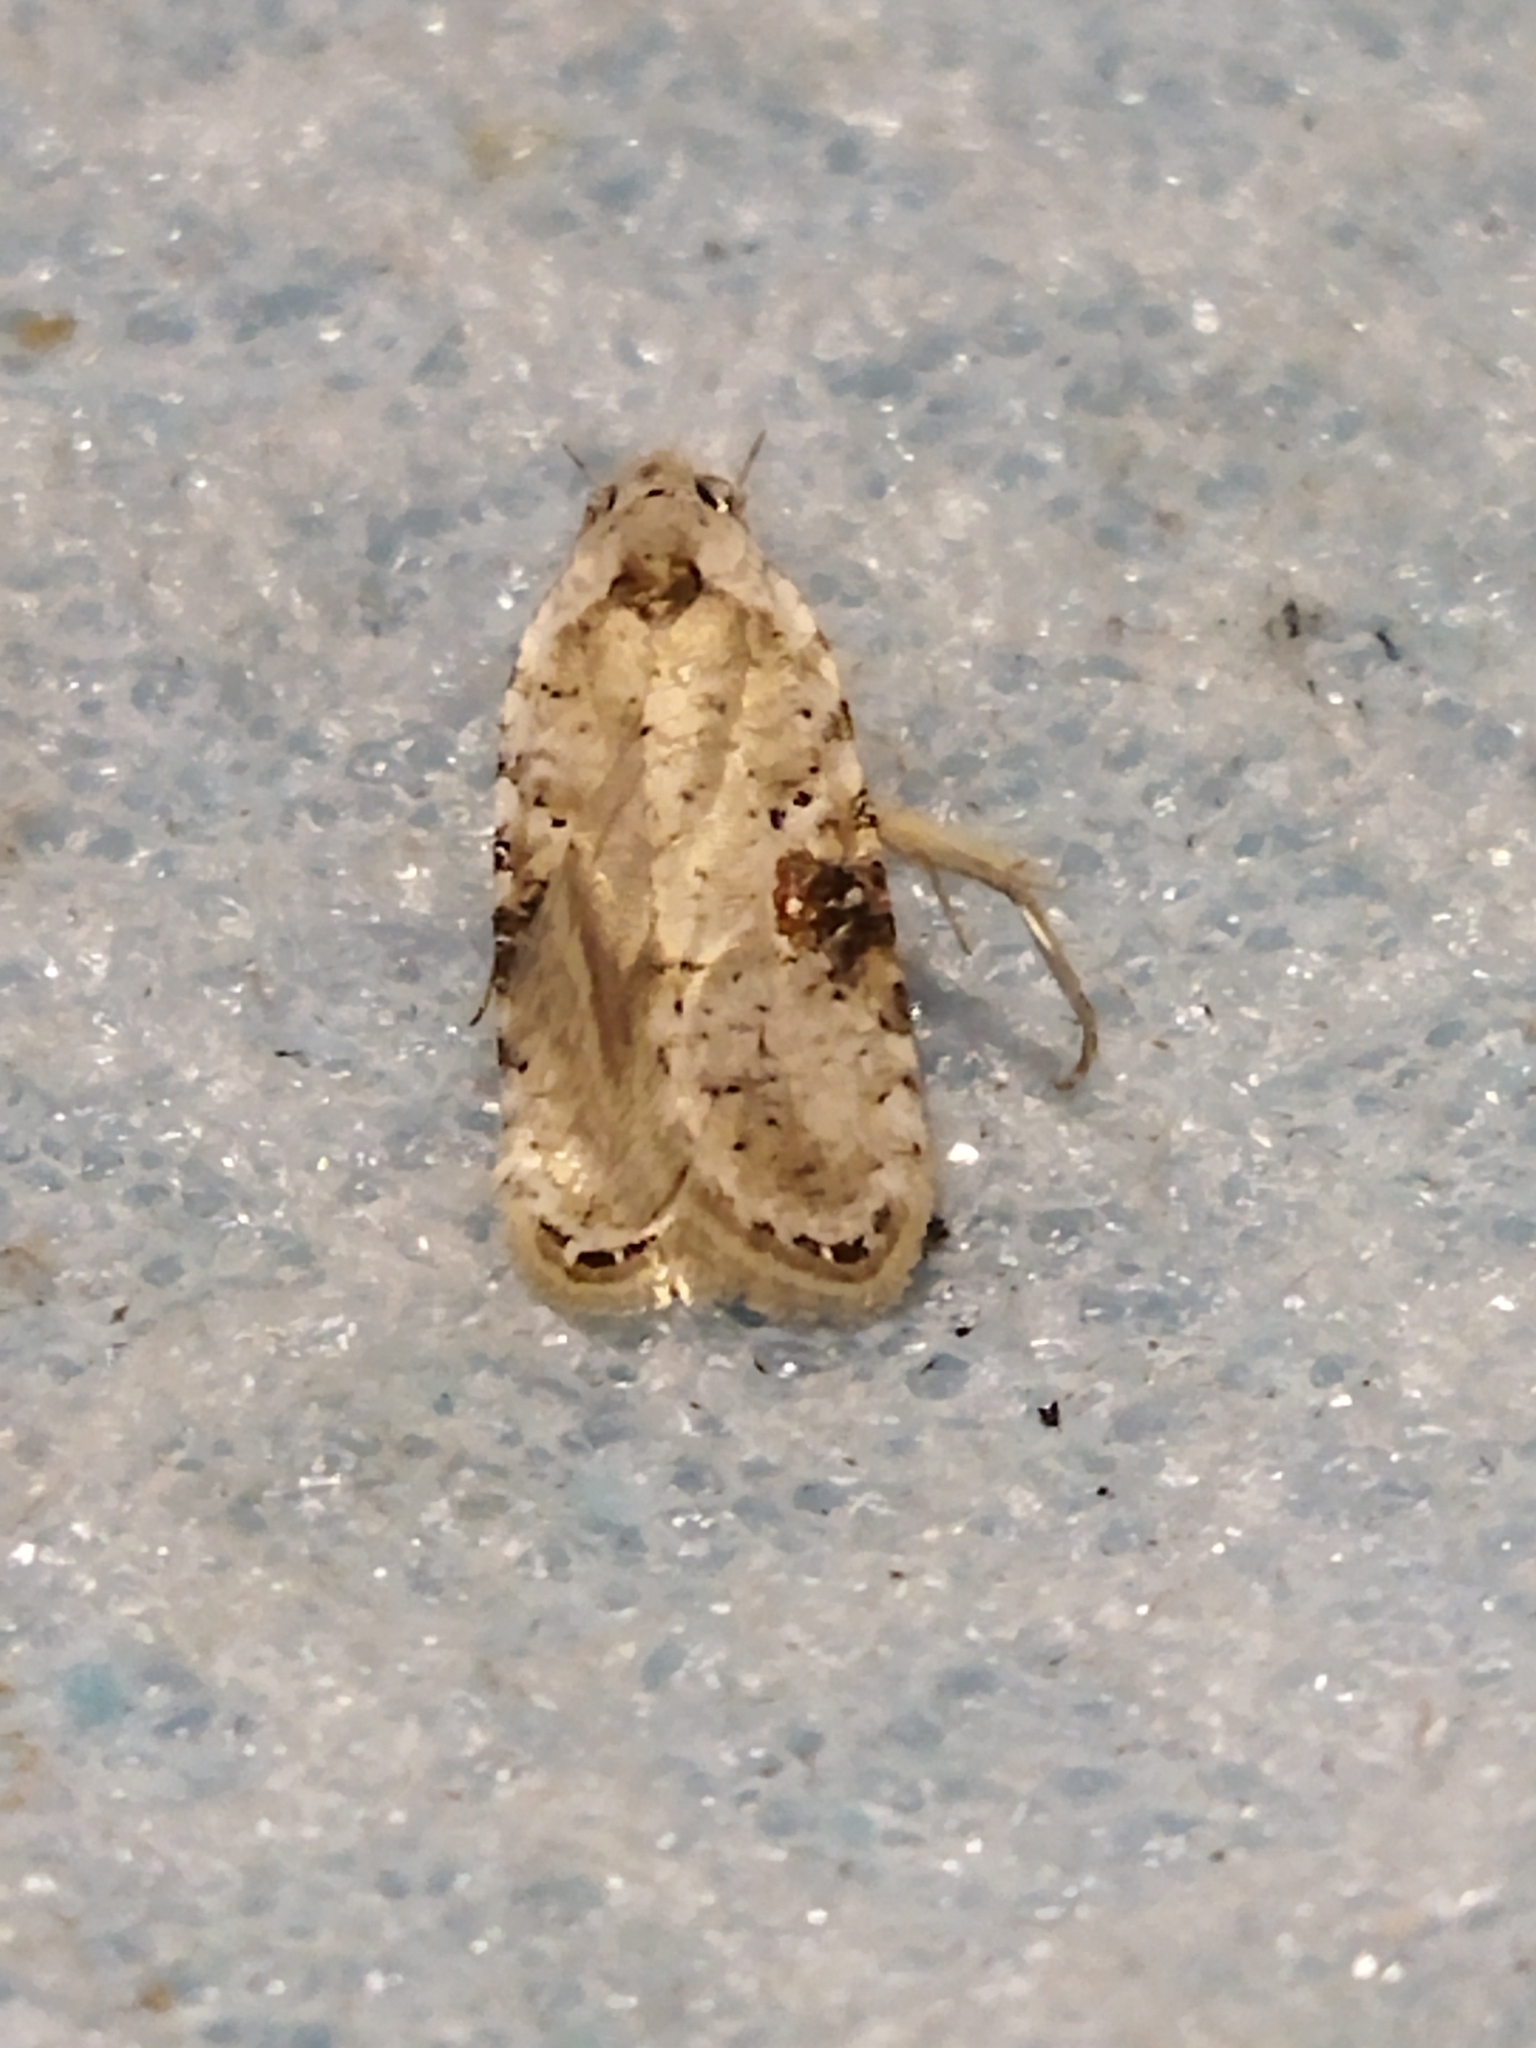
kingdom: Animalia
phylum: Arthropoda
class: Insecta
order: Lepidoptera
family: Depressariidae
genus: Agonopterix
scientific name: Agonopterix alstroemeriana
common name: Moth
